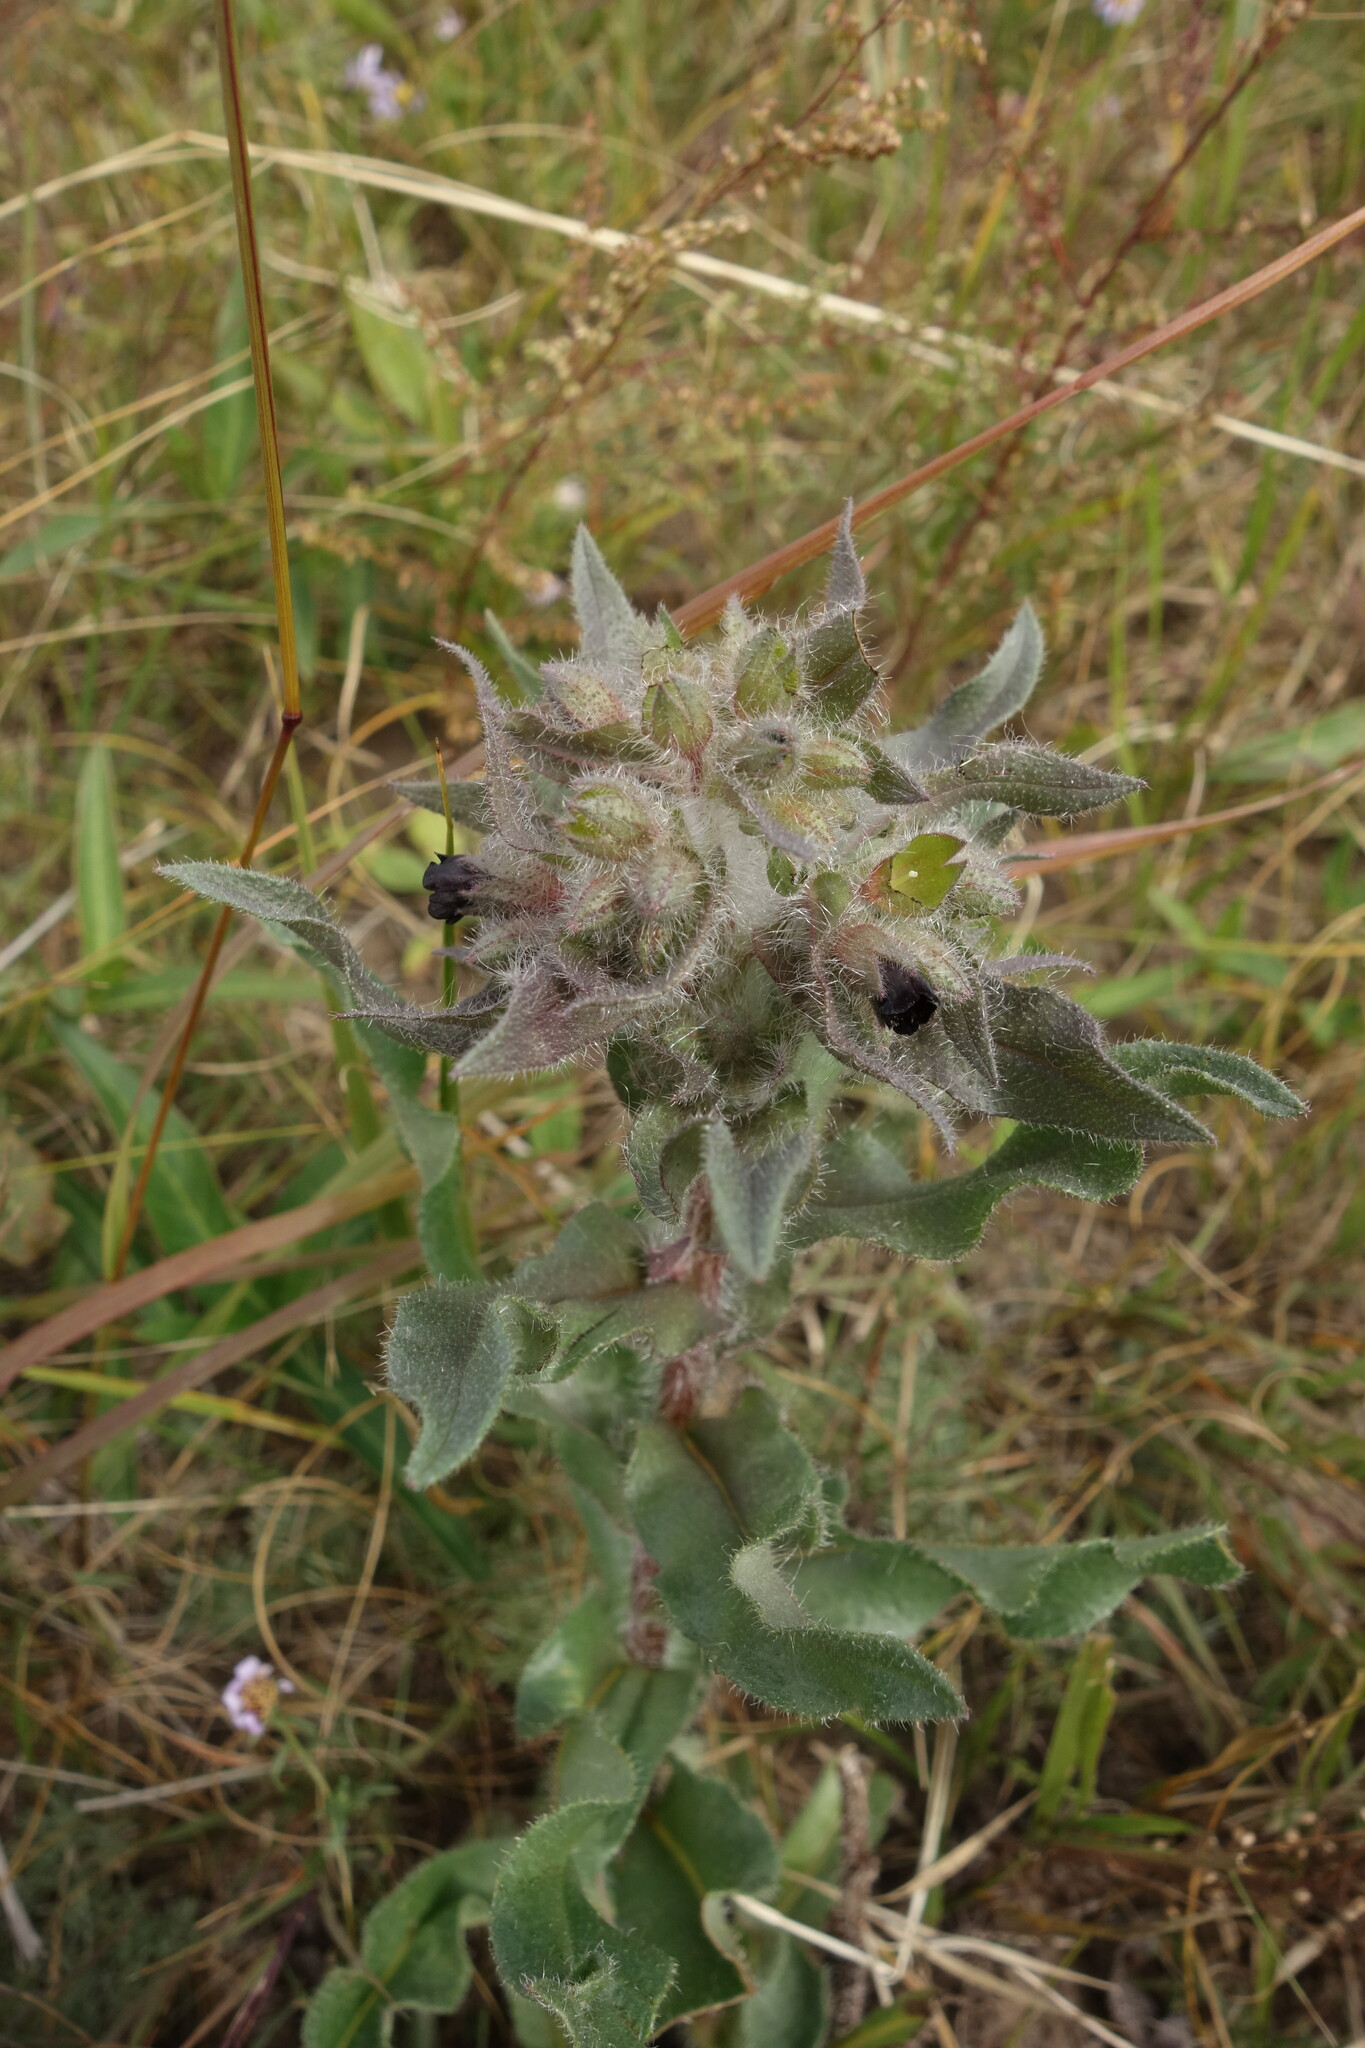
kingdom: Plantae
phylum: Tracheophyta
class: Magnoliopsida
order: Boraginales
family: Boraginaceae
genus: Nonea
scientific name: Nonea pulla
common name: Brown nonea
